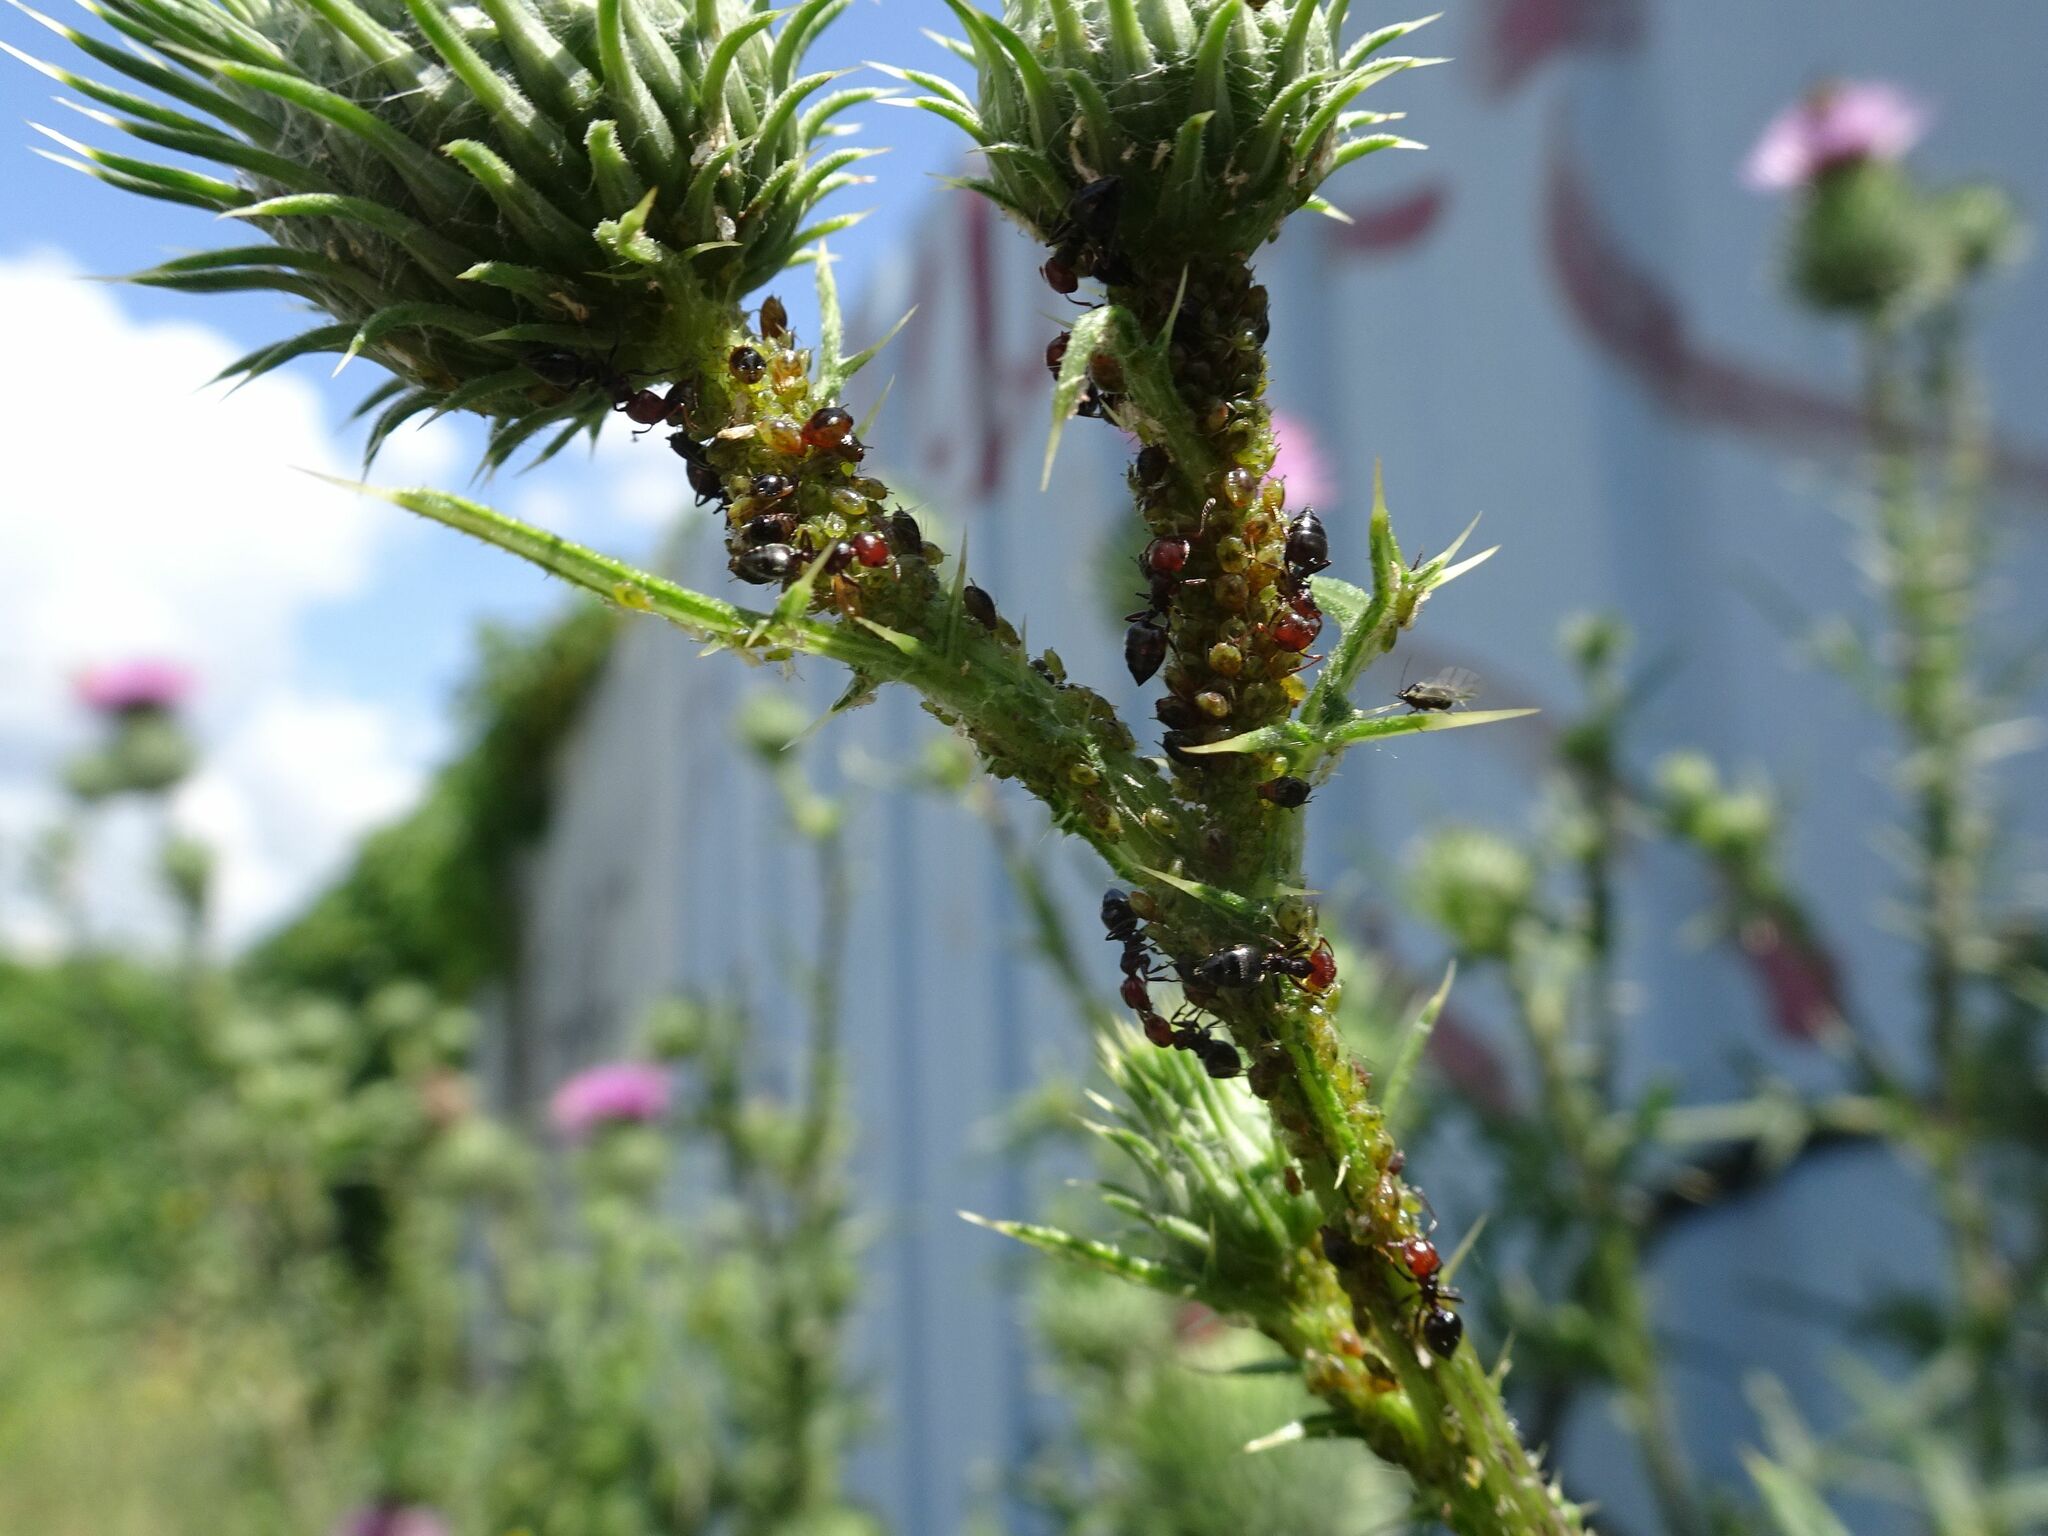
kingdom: Animalia
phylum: Arthropoda
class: Insecta
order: Hymenoptera
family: Formicidae
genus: Crematogaster
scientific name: Crematogaster scutellaris
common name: Fourmi du liège
